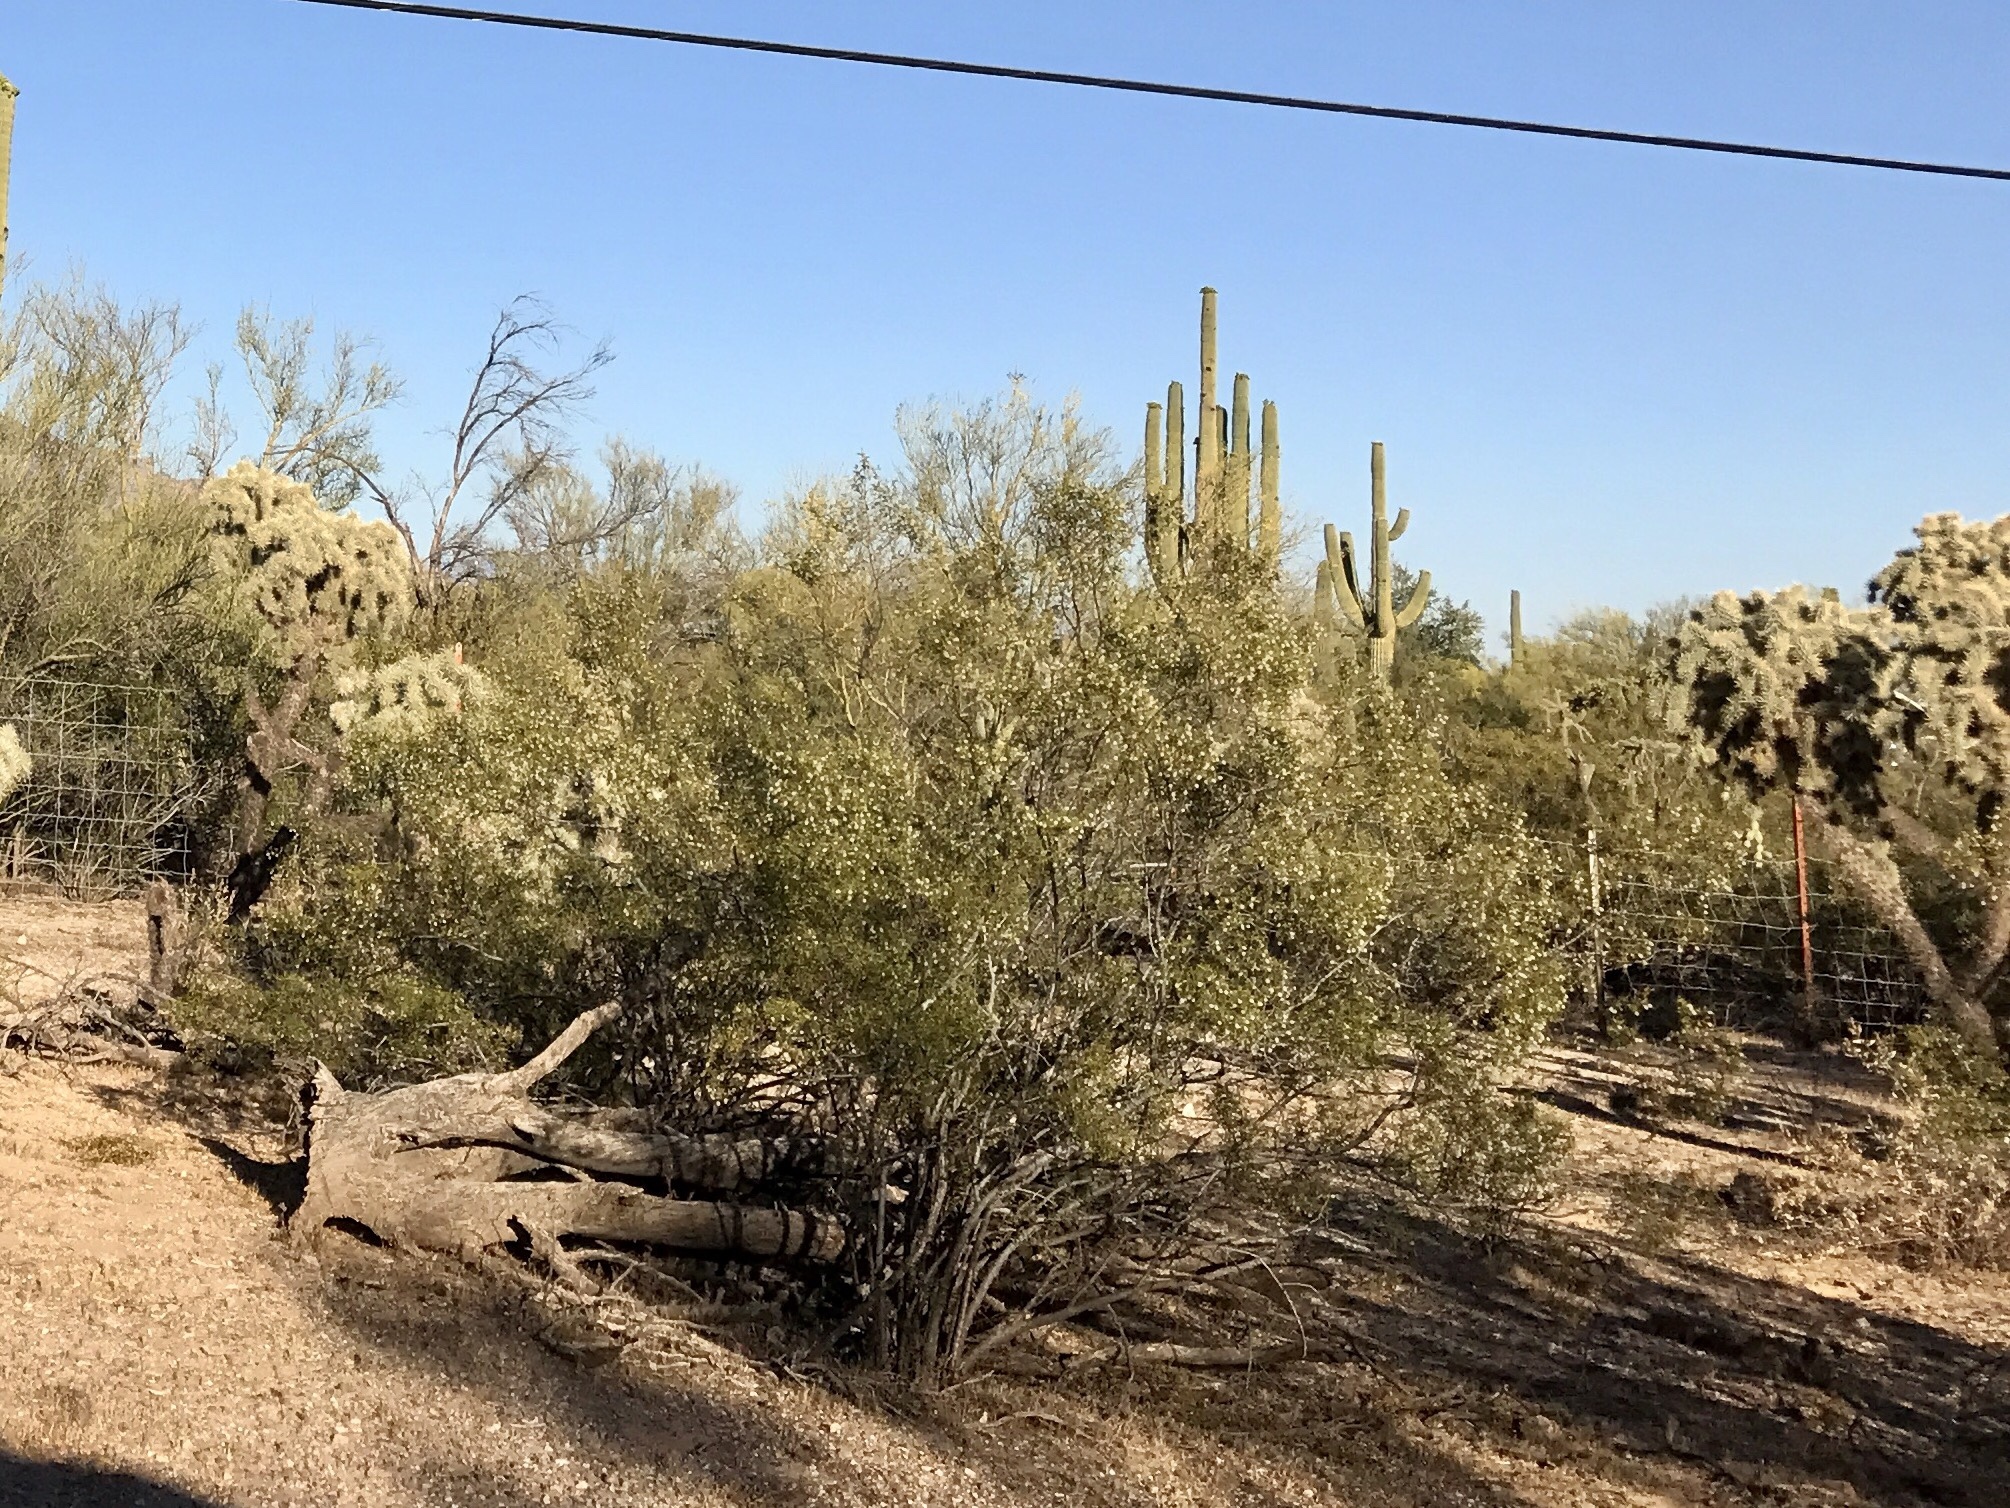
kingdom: Plantae
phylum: Tracheophyta
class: Magnoliopsida
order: Zygophyllales
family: Zygophyllaceae
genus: Larrea
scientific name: Larrea tridentata
